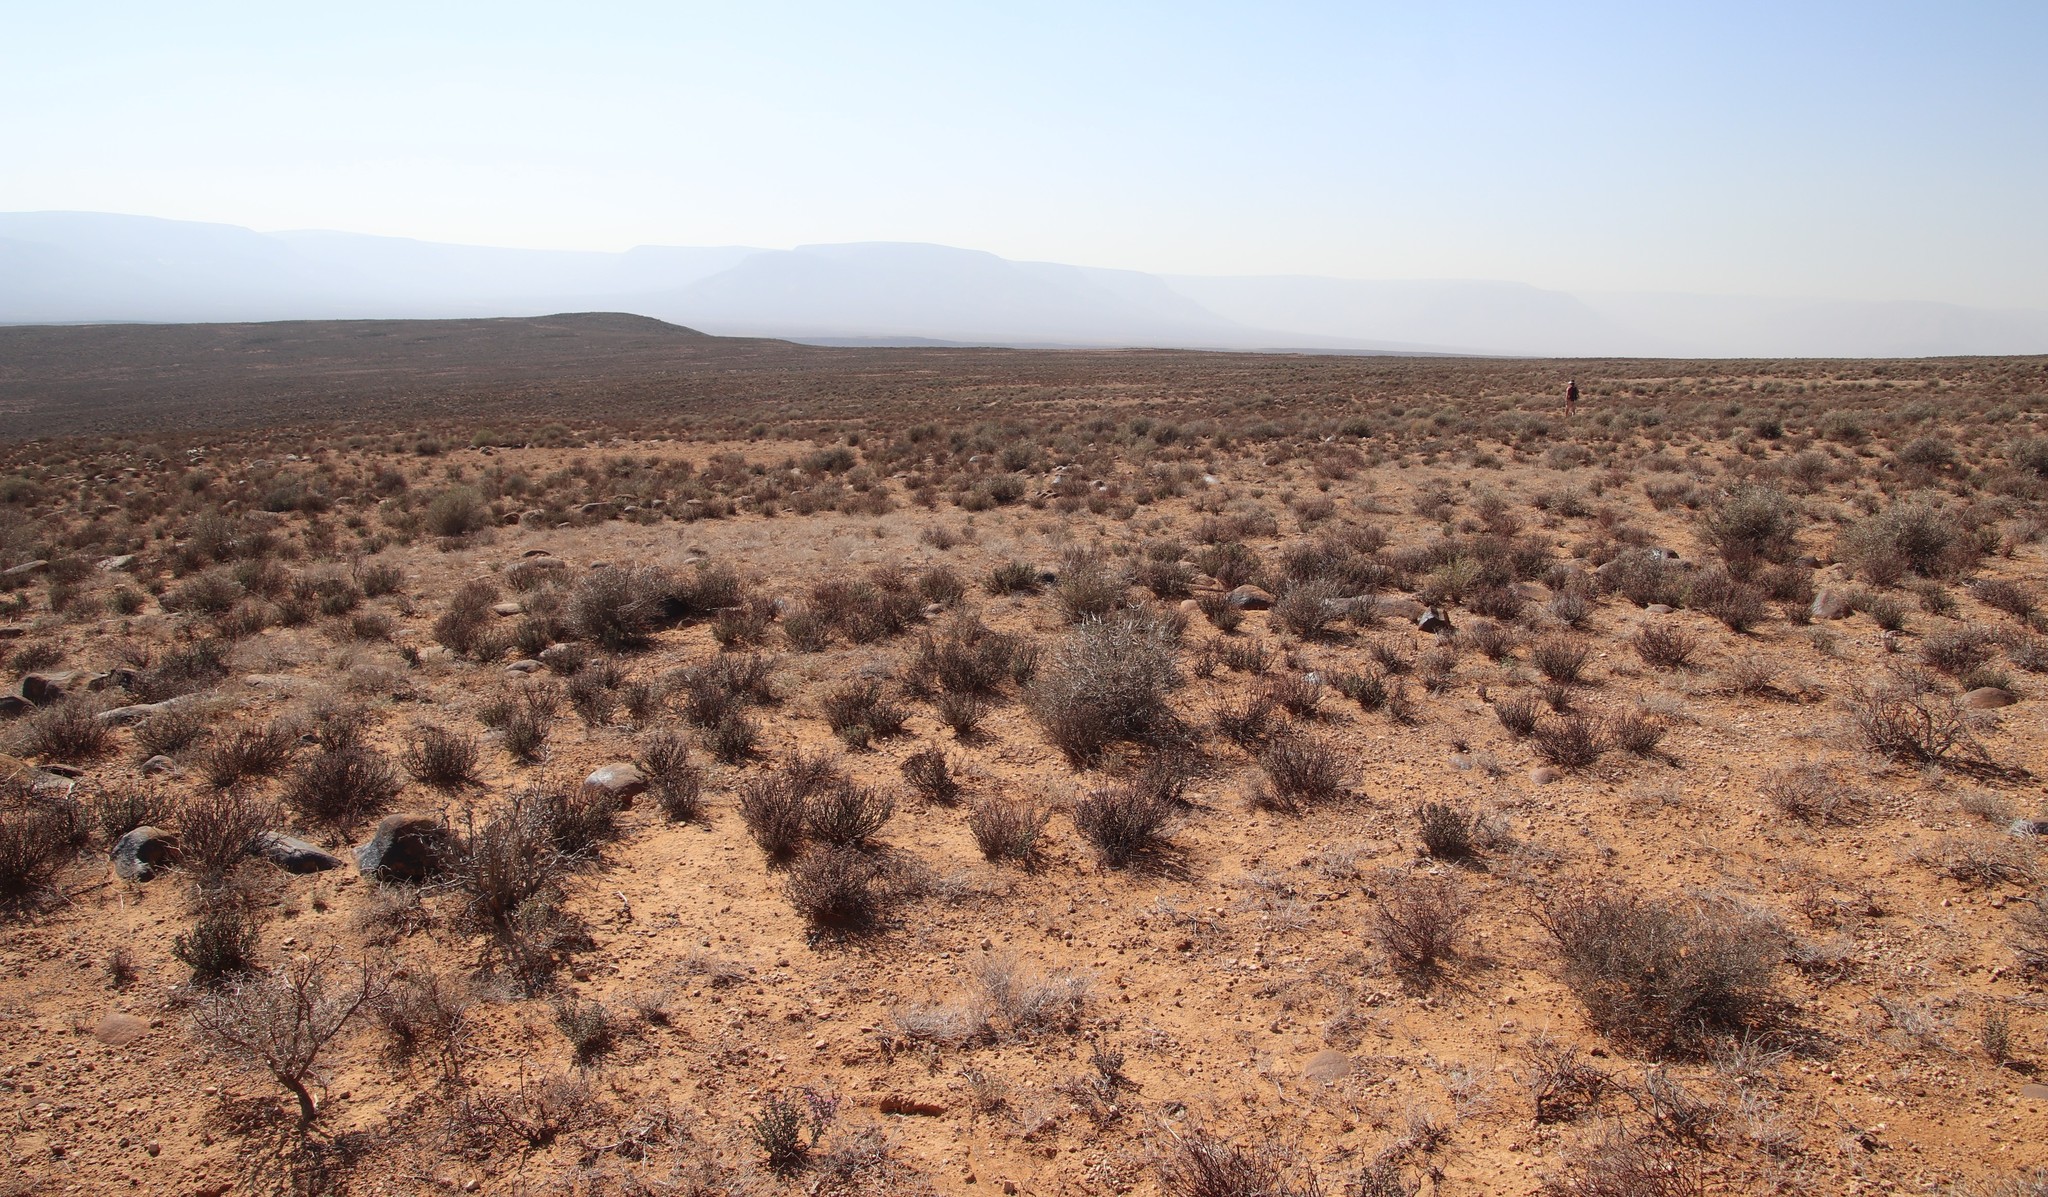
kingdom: Animalia
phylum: Arthropoda
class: Insecta
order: Blattodea
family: Hodotermitidae
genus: Microhodotermes
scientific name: Microhodotermes viator
